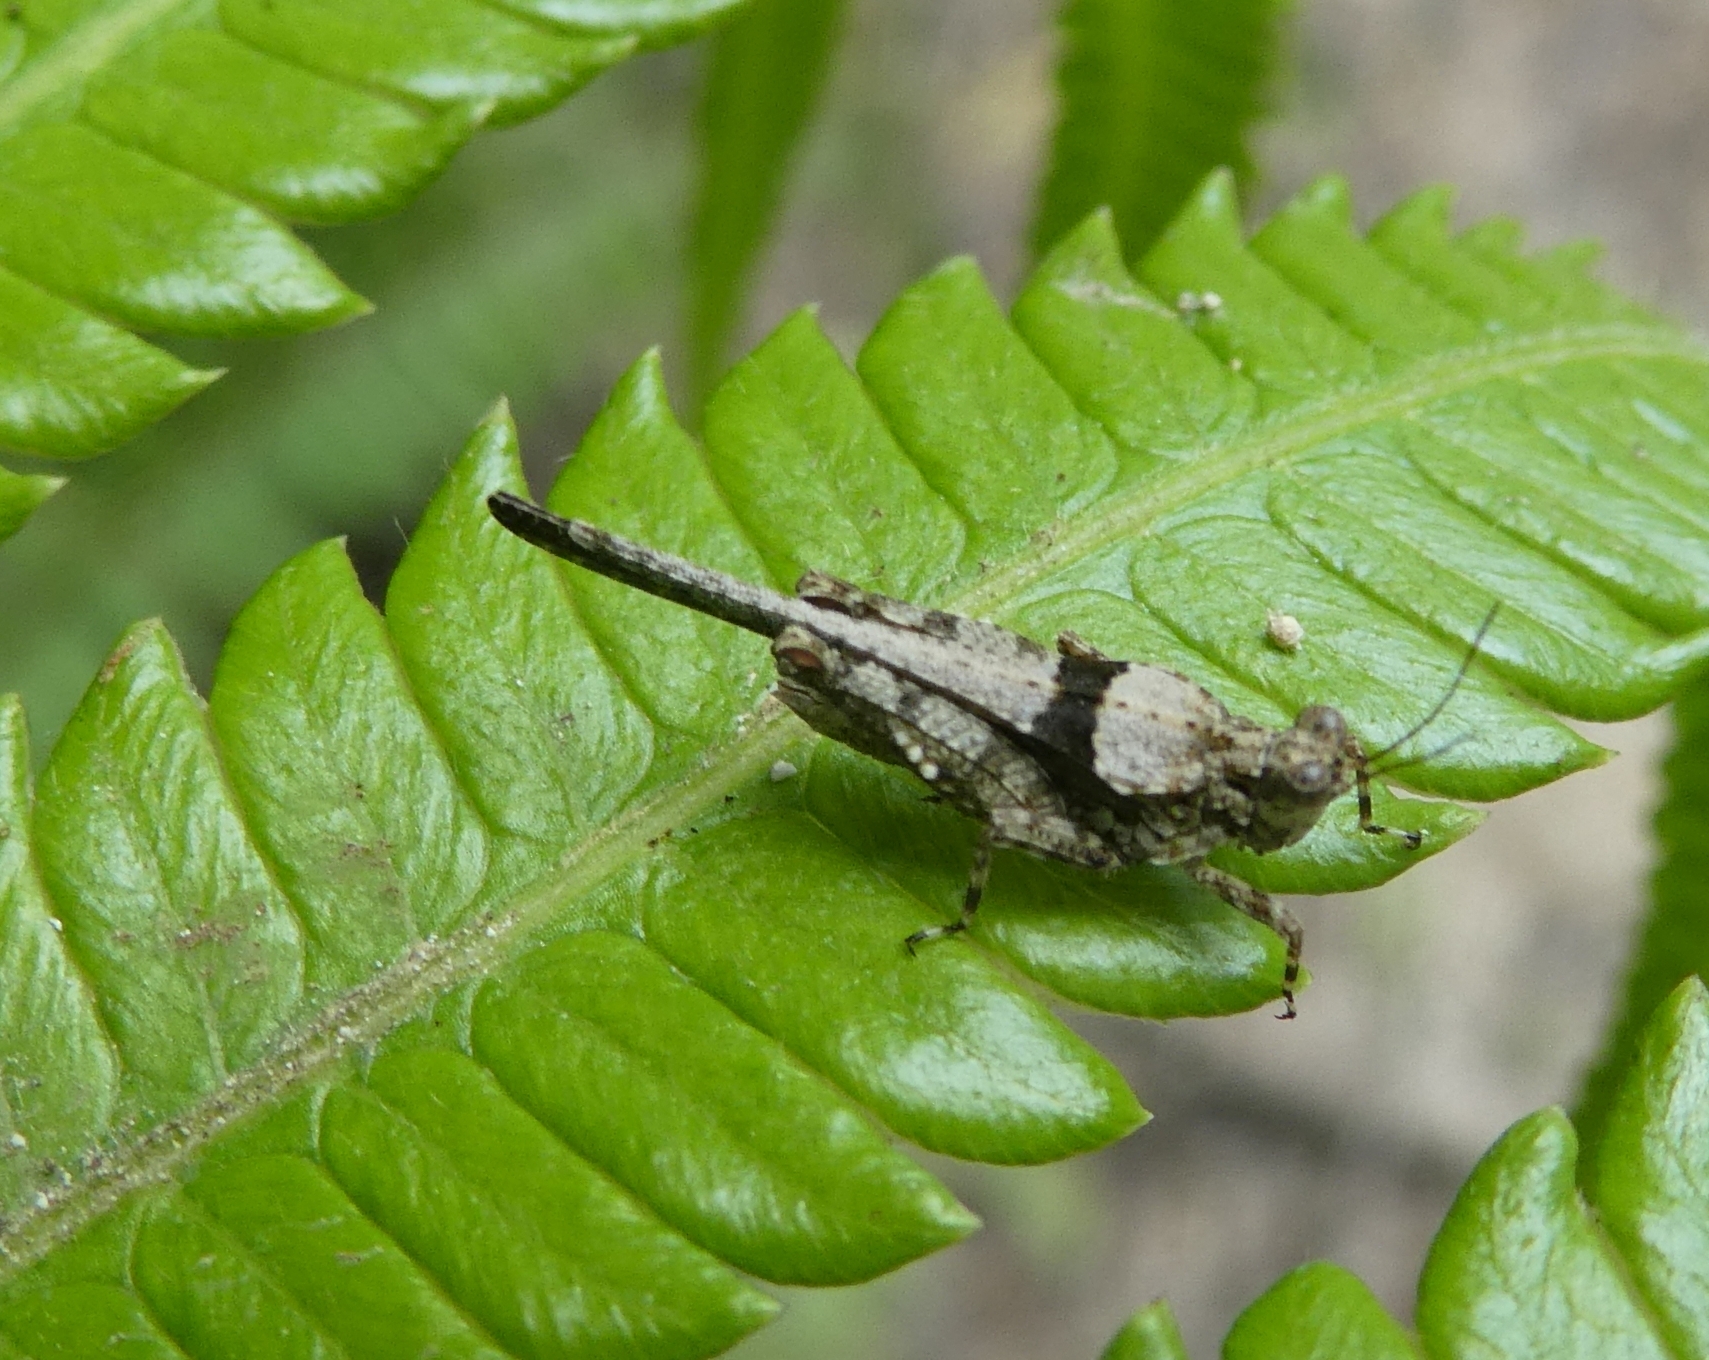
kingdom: Animalia
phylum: Arthropoda
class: Insecta
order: Orthoptera
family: Tetrigidae
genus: Lamellitettigodes
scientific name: Lamellitettigodes sagittatus
